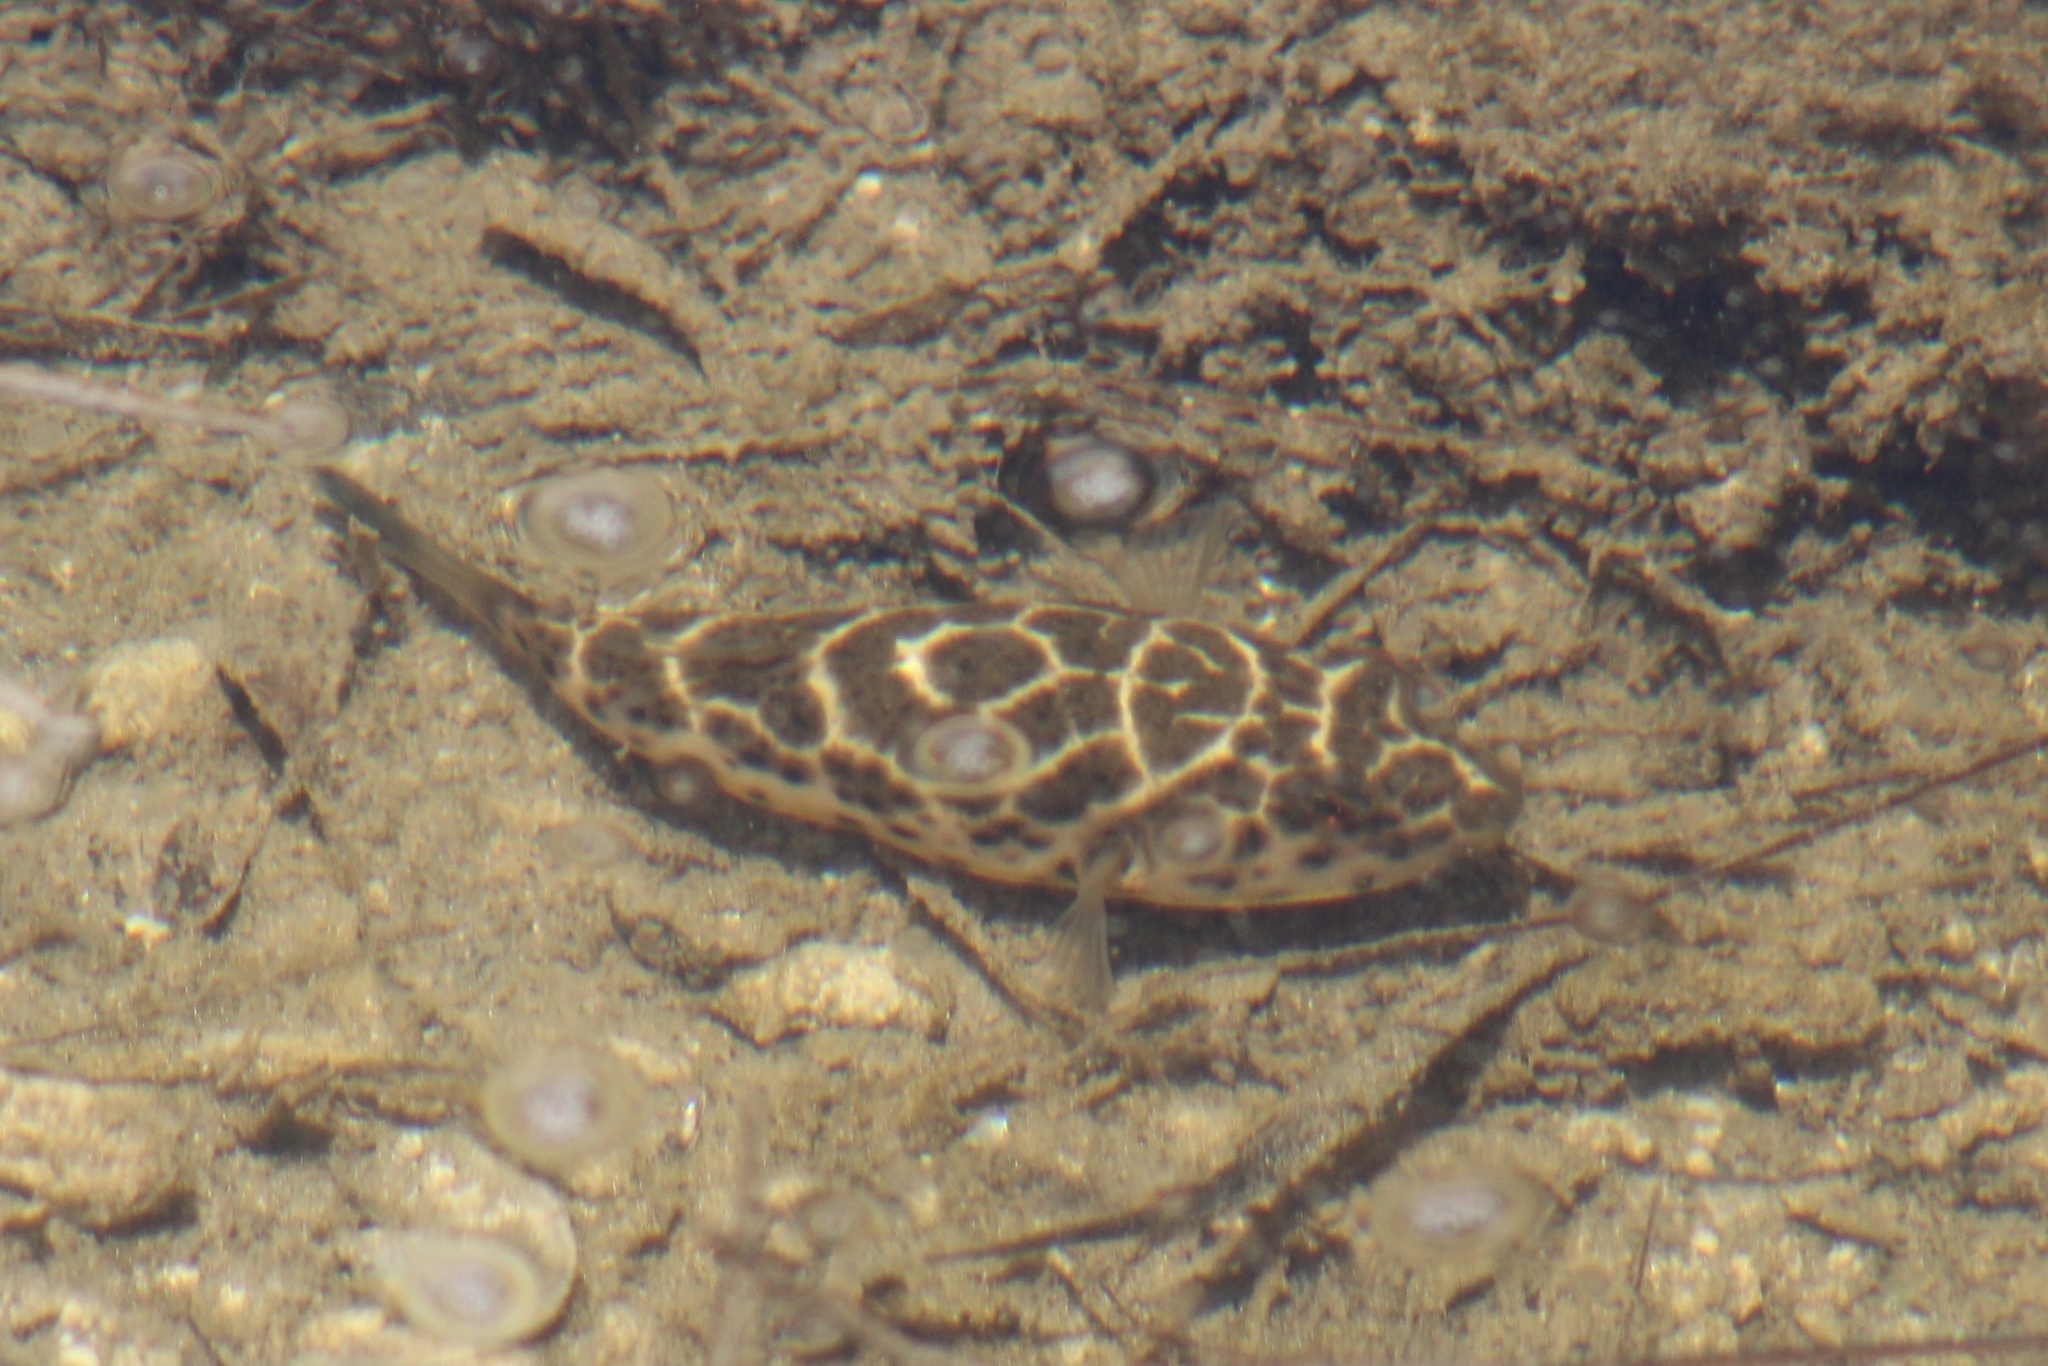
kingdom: Animalia
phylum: Chordata
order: Tetraodontiformes
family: Tetraodontidae
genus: Sphoeroides
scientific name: Sphoeroides testudineus
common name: Checkered puffer
